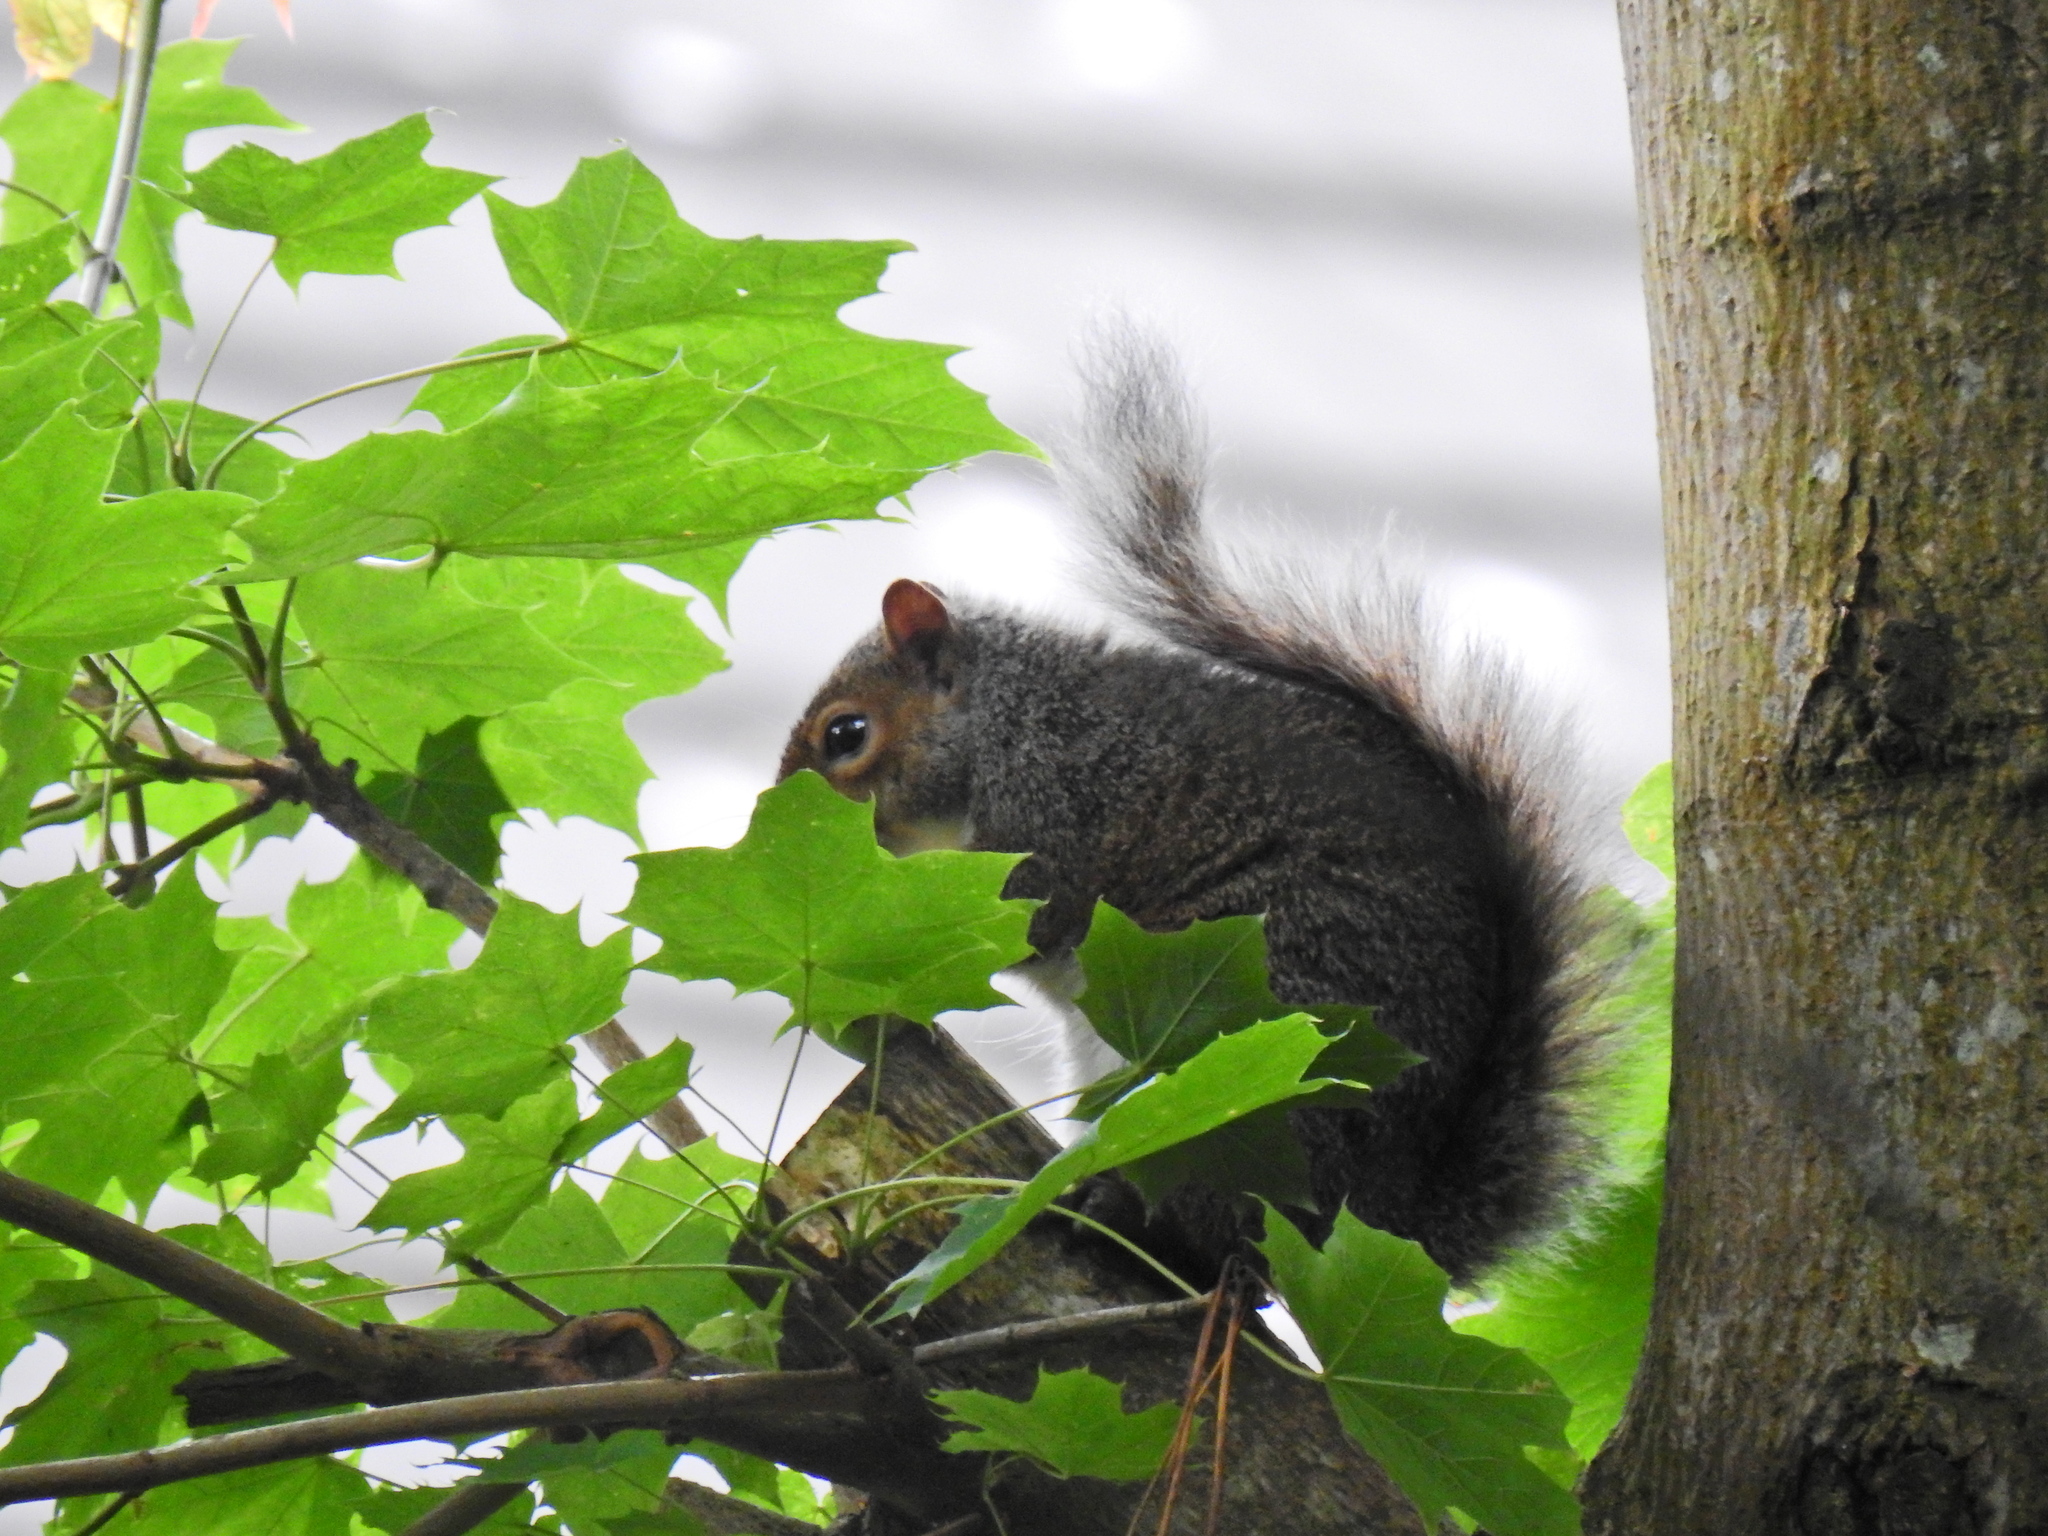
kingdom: Animalia
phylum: Chordata
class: Mammalia
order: Rodentia
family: Sciuridae
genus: Sciurus
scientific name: Sciurus carolinensis
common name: Eastern gray squirrel
